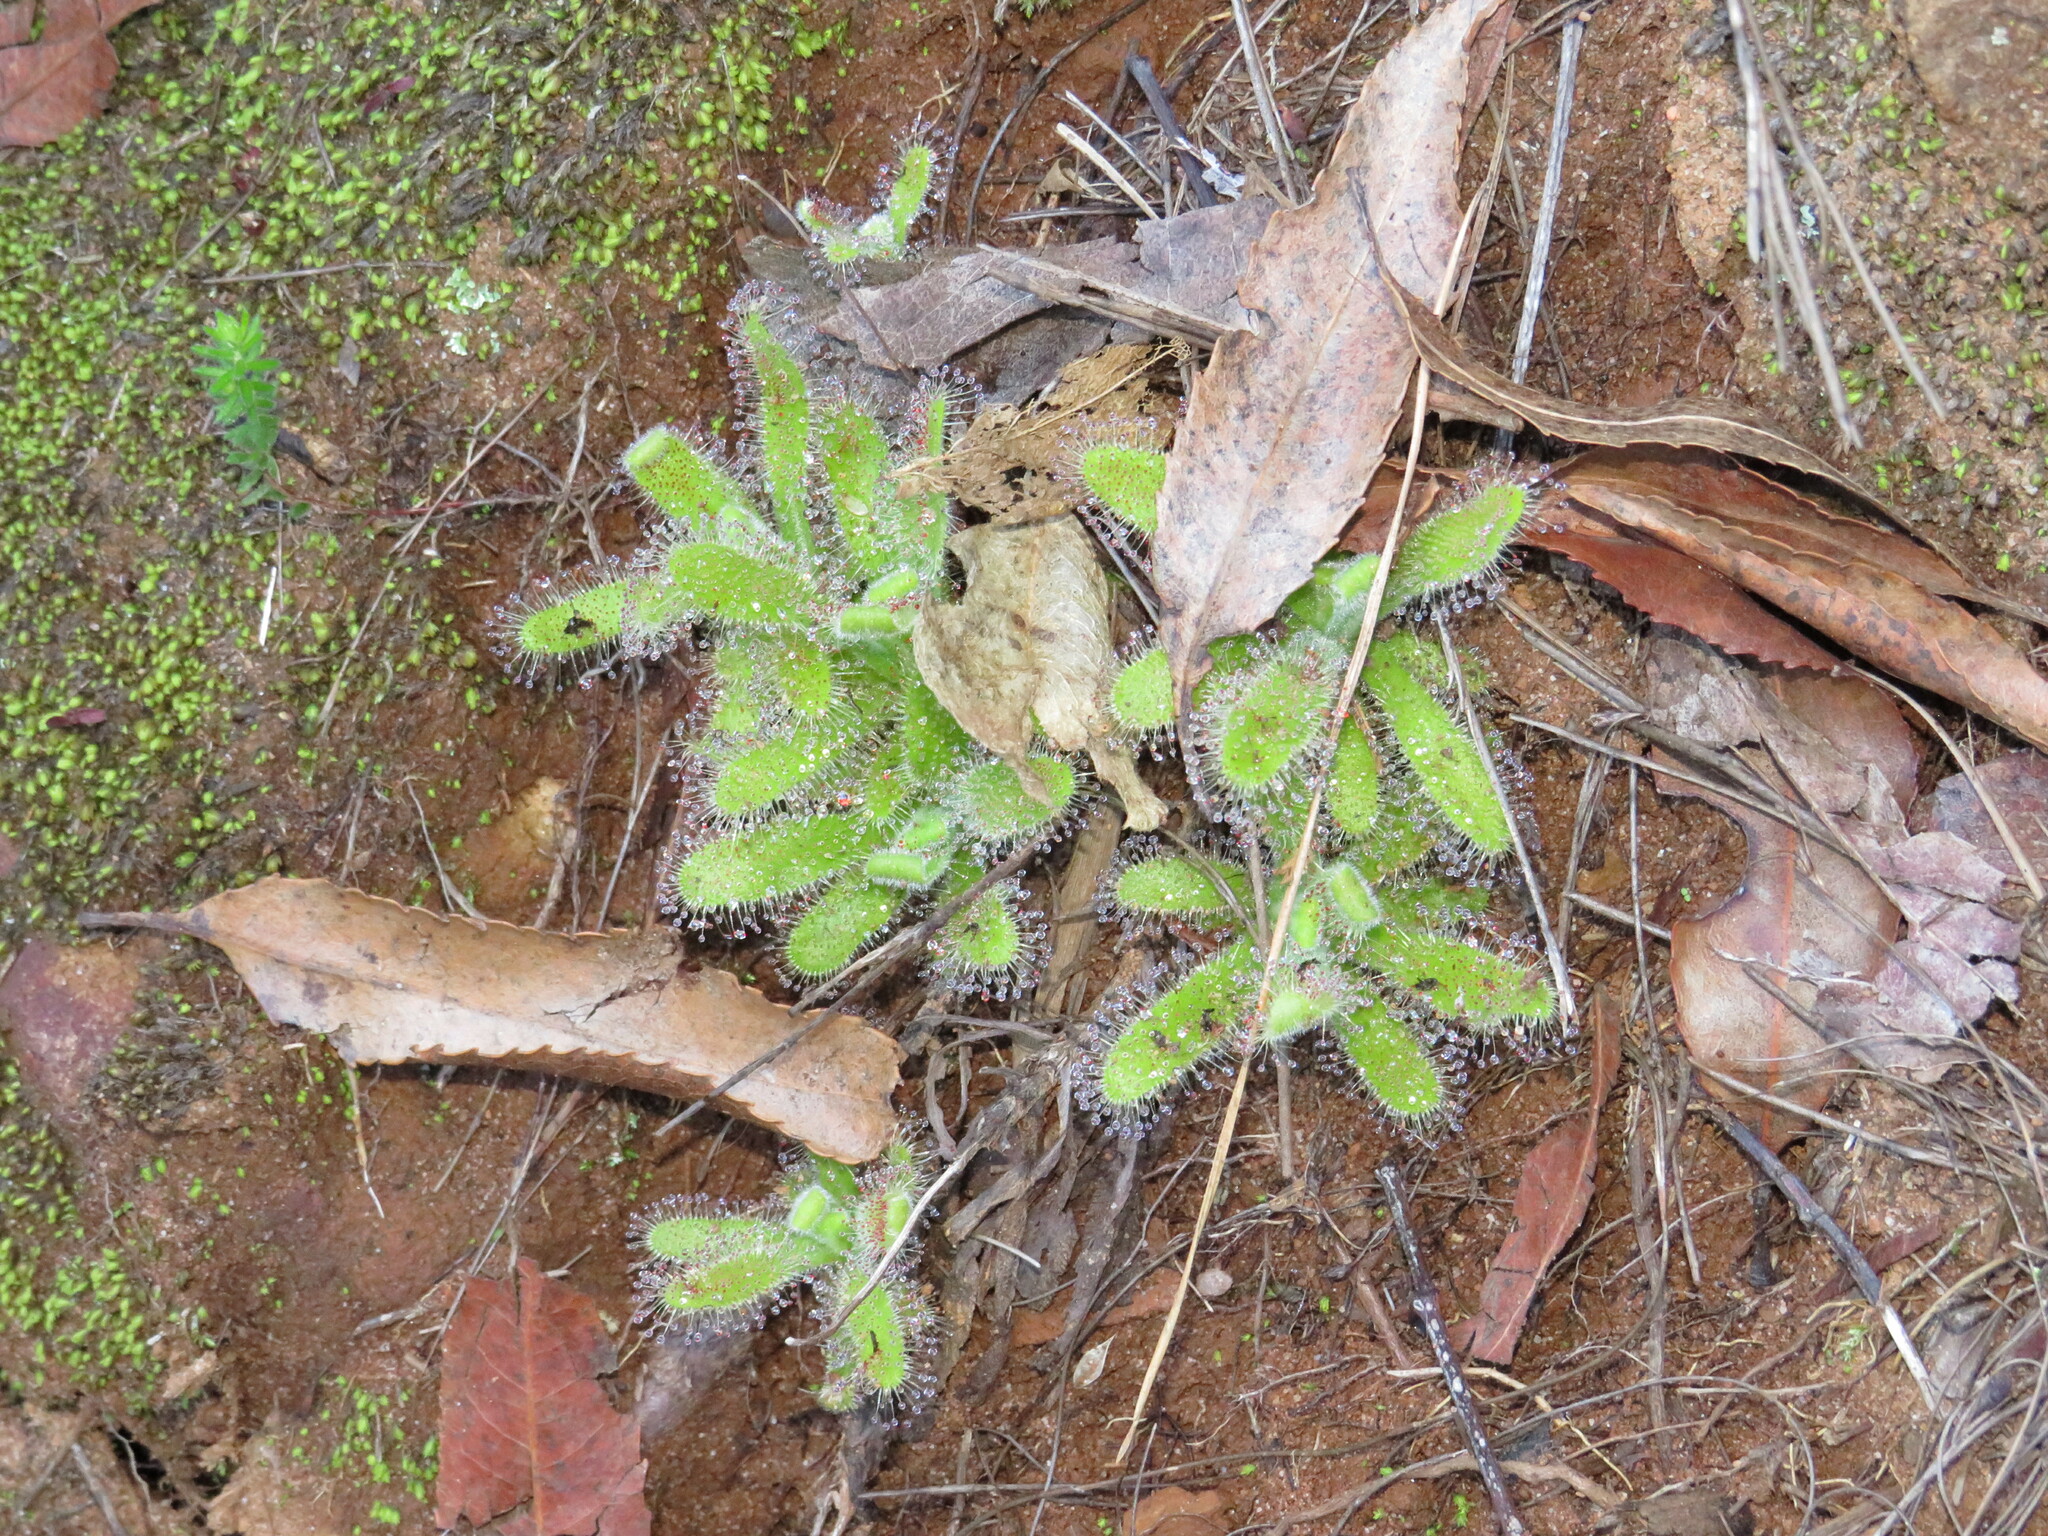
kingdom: Plantae
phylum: Tracheophyta
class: Magnoliopsida
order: Caryophyllales
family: Droseraceae
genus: Drosera
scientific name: Drosera hilaris
